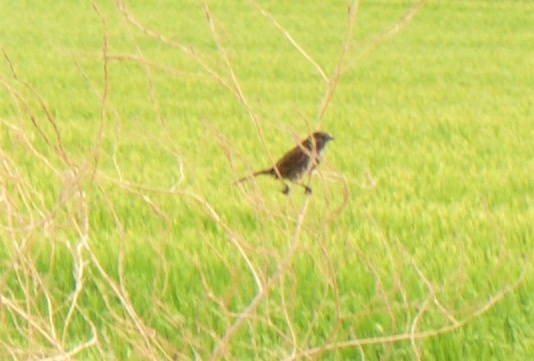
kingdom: Animalia
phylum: Chordata
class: Aves
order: Passeriformes
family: Passerellidae
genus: Melospiza
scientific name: Melospiza melodia
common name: Song sparrow
